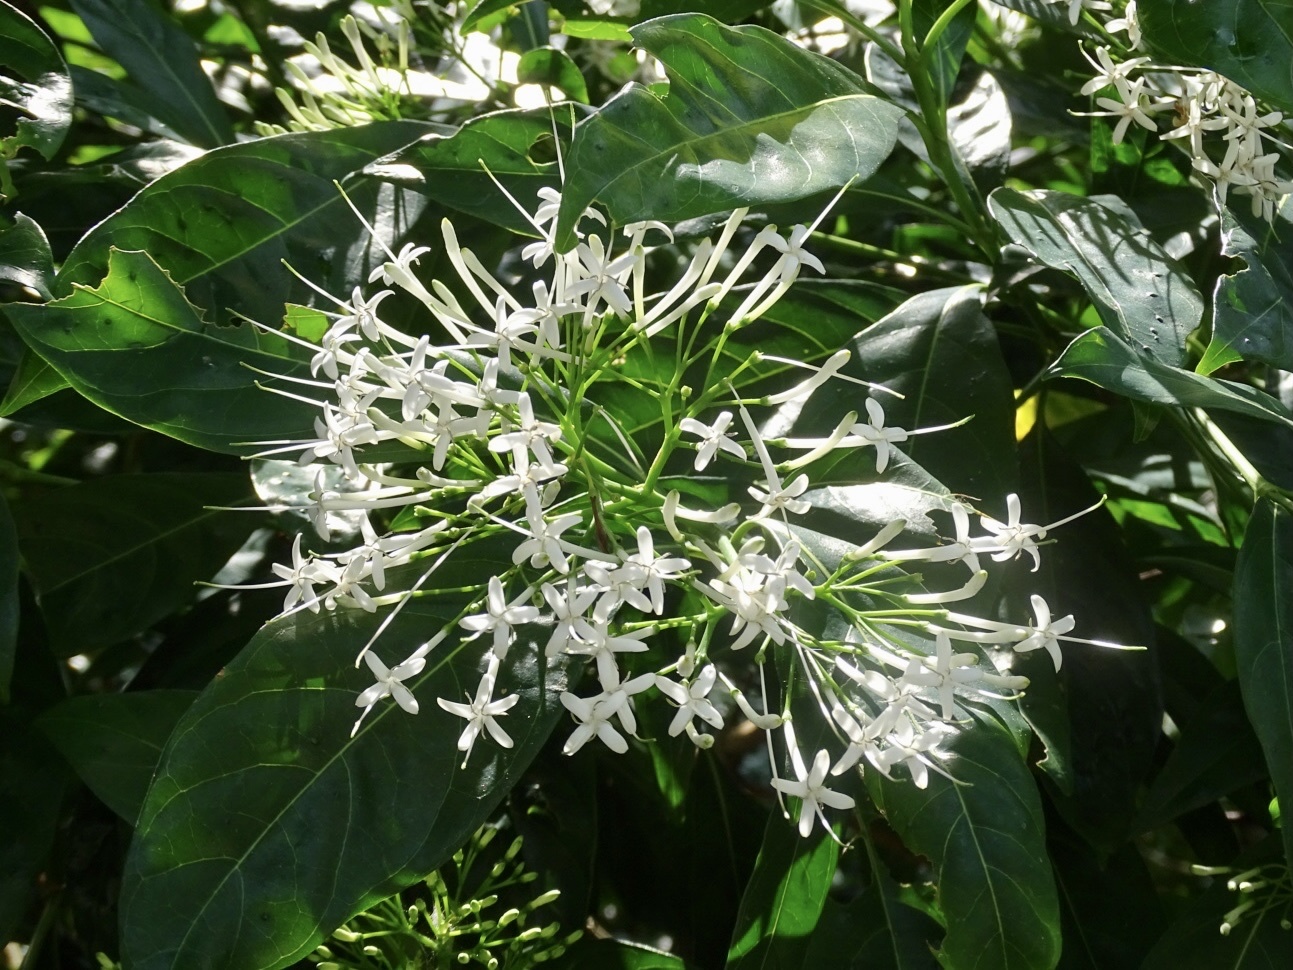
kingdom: Plantae
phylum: Tracheophyta
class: Magnoliopsida
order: Gentianales
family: Rubiaceae
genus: Pavetta
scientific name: Pavetta hongkongensis
